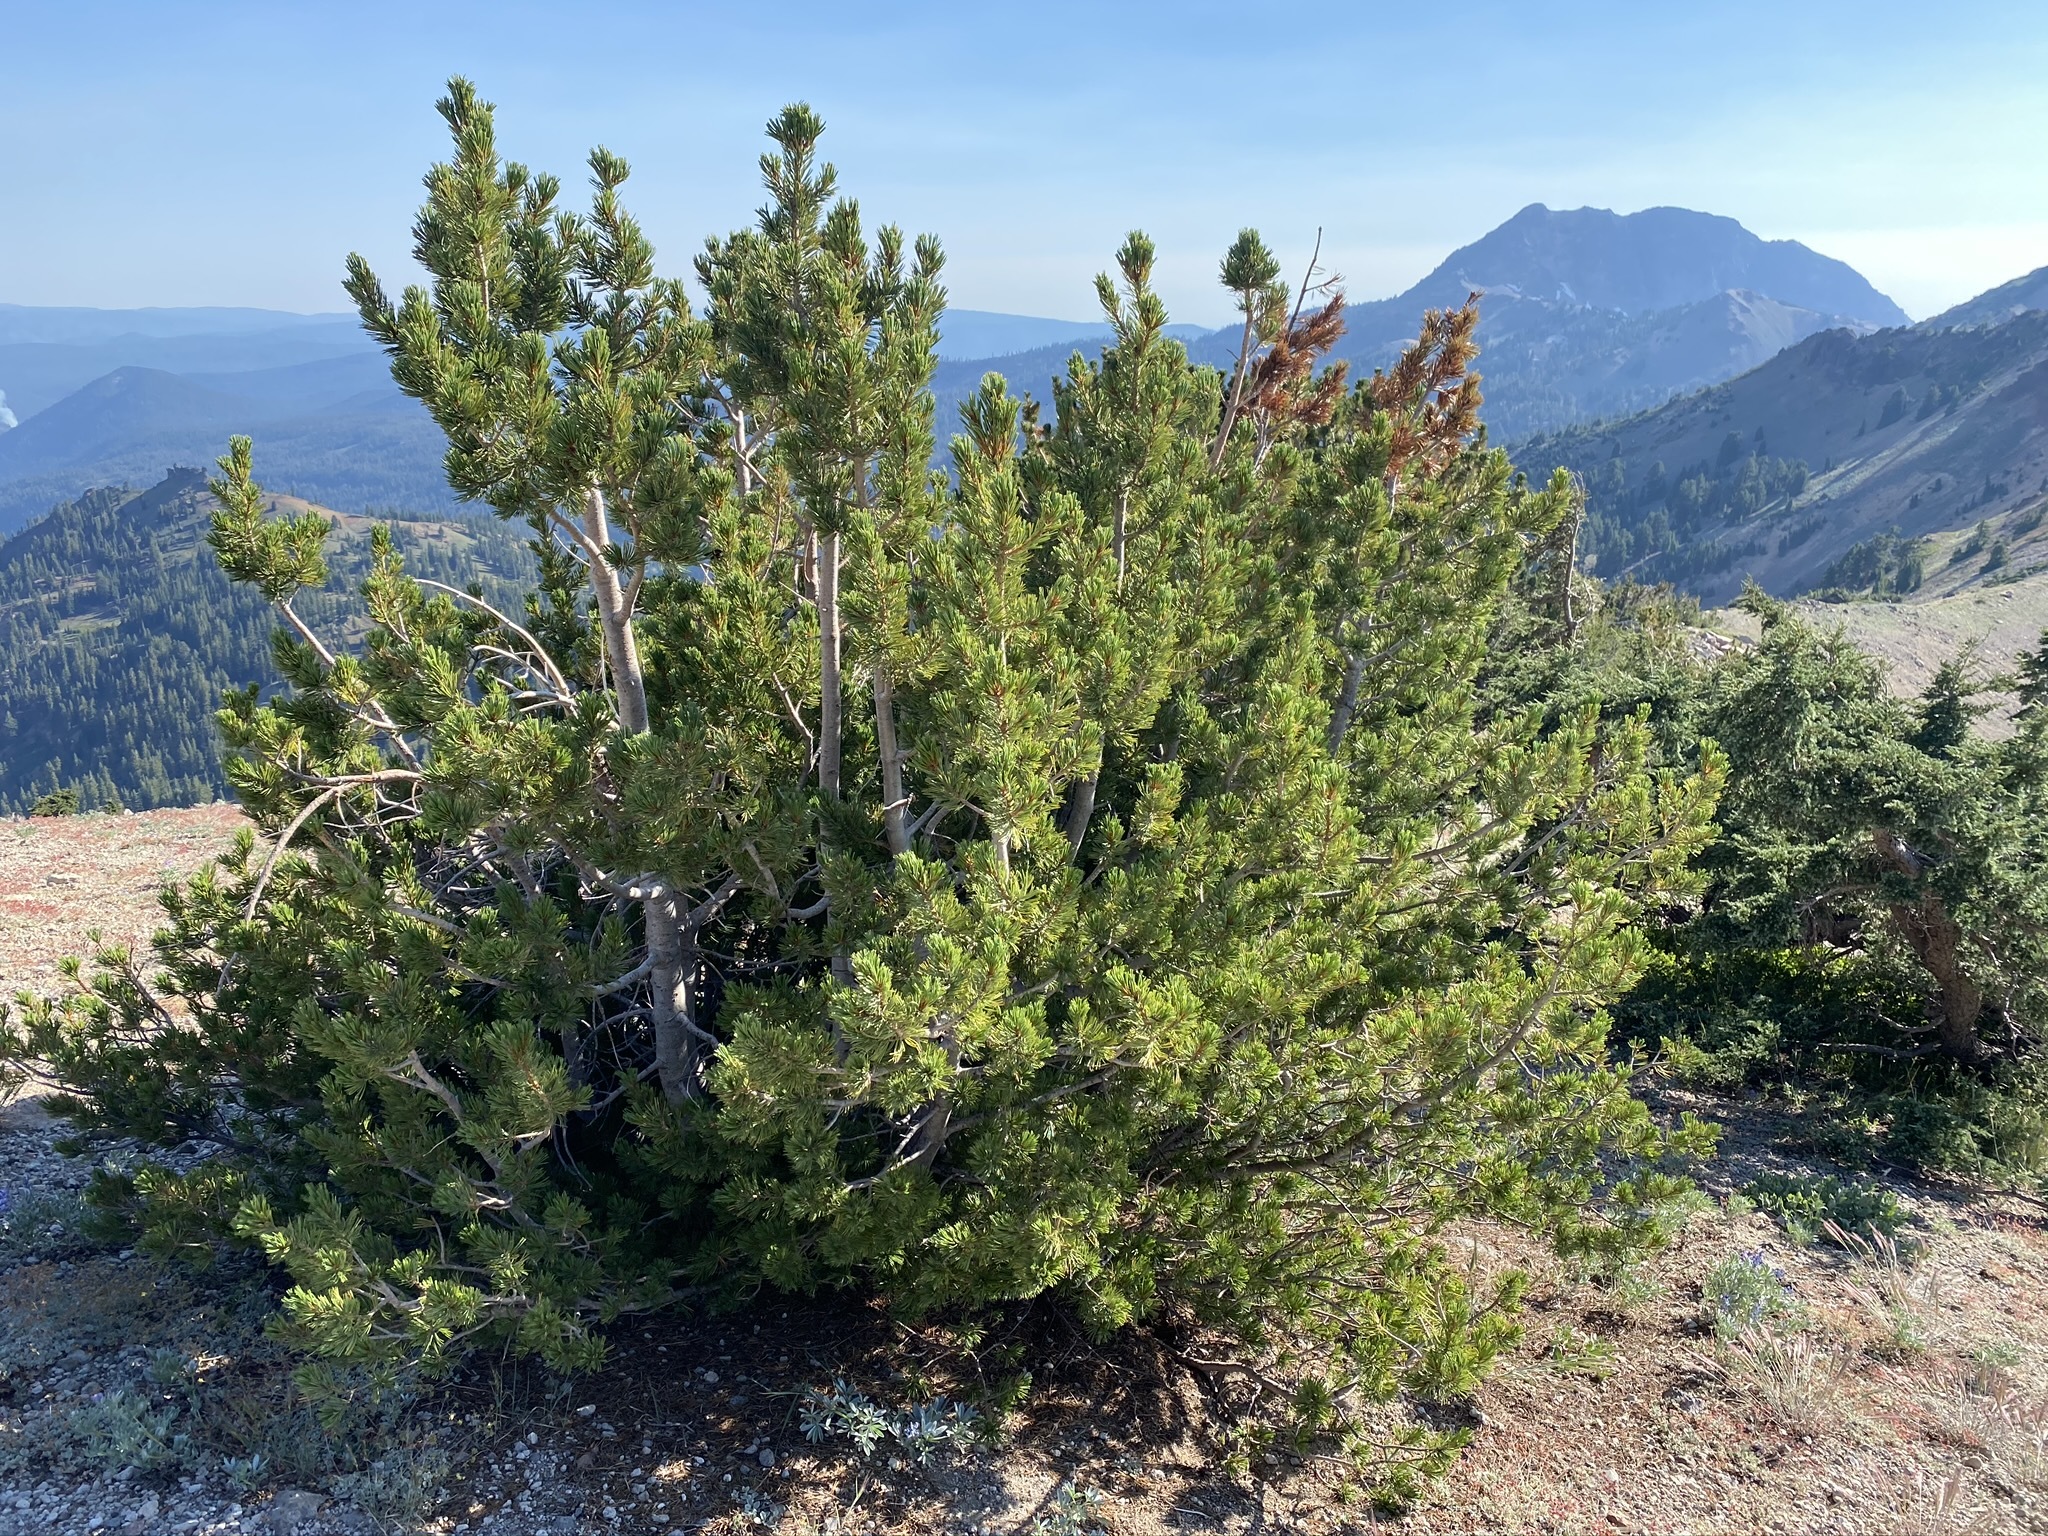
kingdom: Plantae
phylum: Tracheophyta
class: Pinopsida
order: Pinales
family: Pinaceae
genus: Pinus
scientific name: Pinus albicaulis
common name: Whitebark pine
